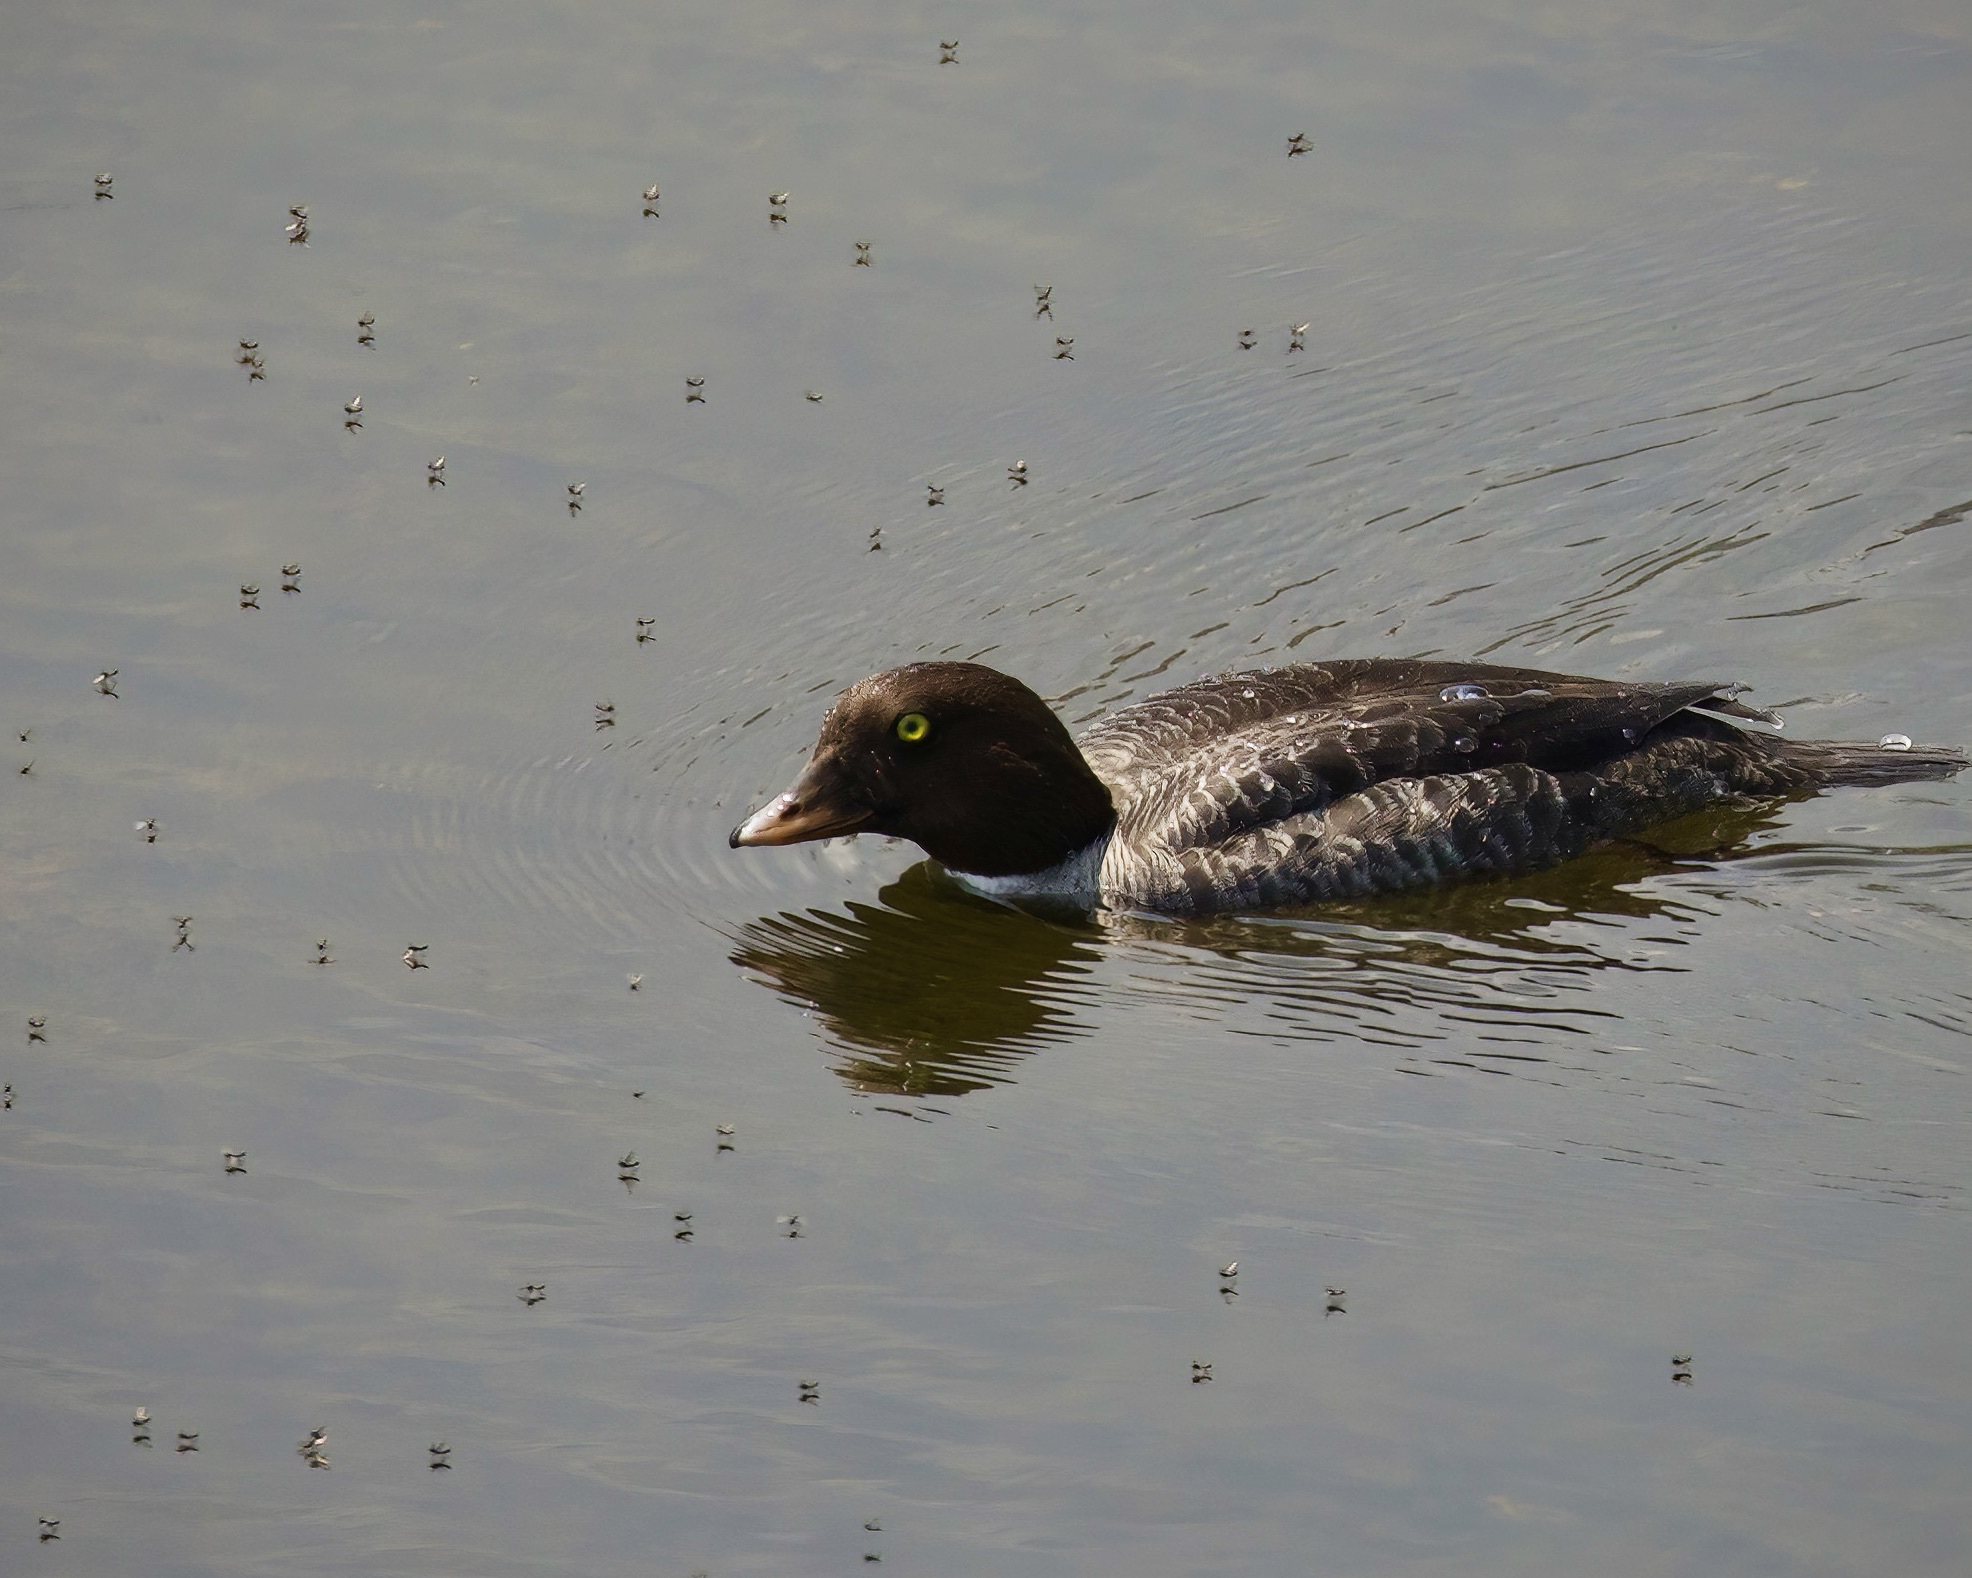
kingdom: Animalia
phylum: Chordata
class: Aves
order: Anseriformes
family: Anatidae
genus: Bucephala
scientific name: Bucephala islandica
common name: Barrow's goldeneye
